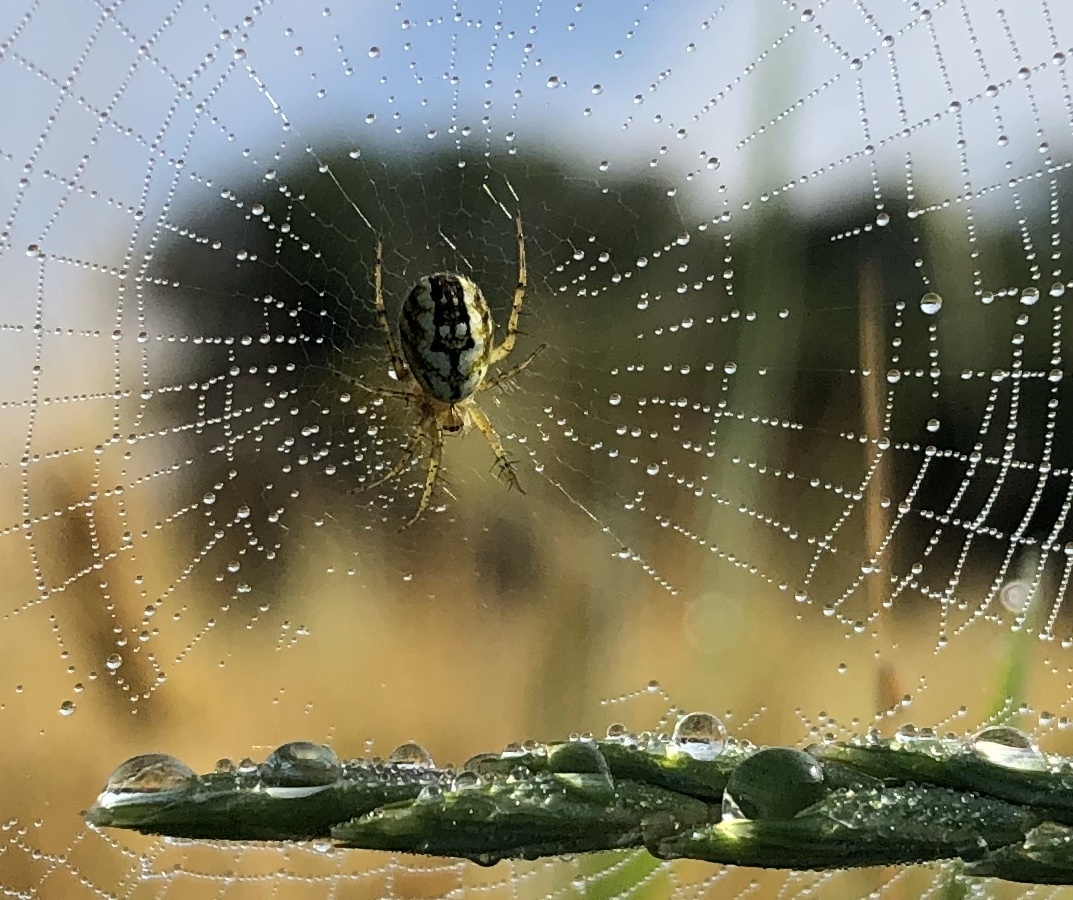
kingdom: Animalia
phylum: Arthropoda
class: Arachnida
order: Araneae
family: Araneidae
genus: Mangora
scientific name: Mangora acalypha
